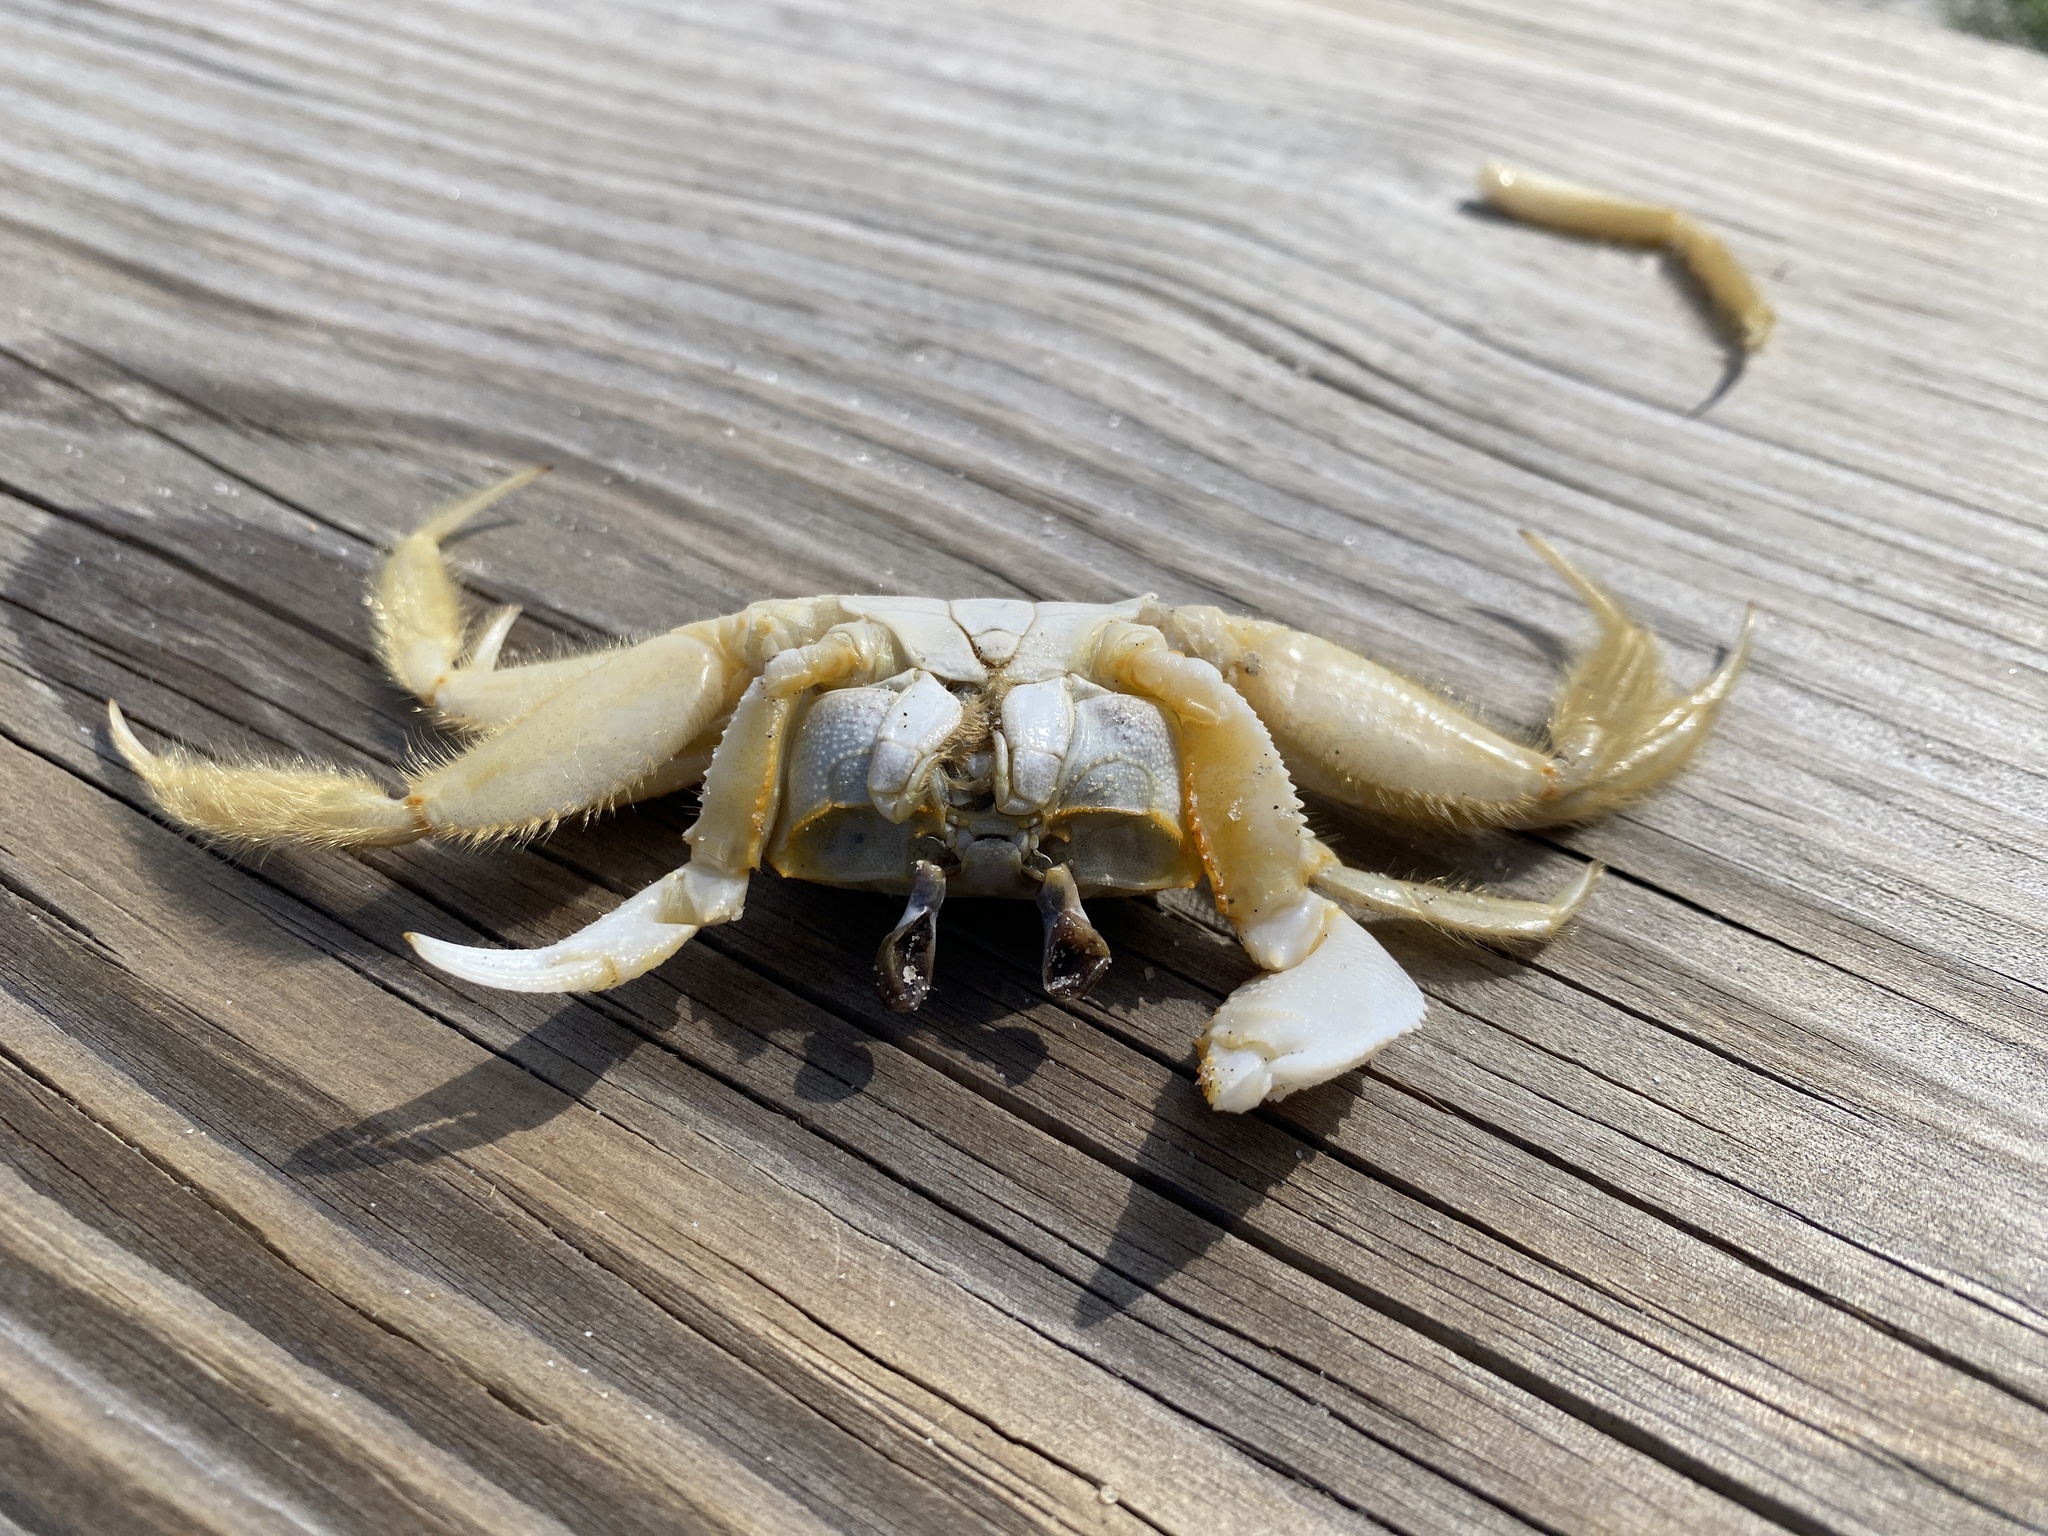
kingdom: Animalia
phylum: Arthropoda
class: Malacostraca
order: Decapoda
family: Ocypodidae
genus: Ocypode
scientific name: Ocypode quadrata
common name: Ghost crab
